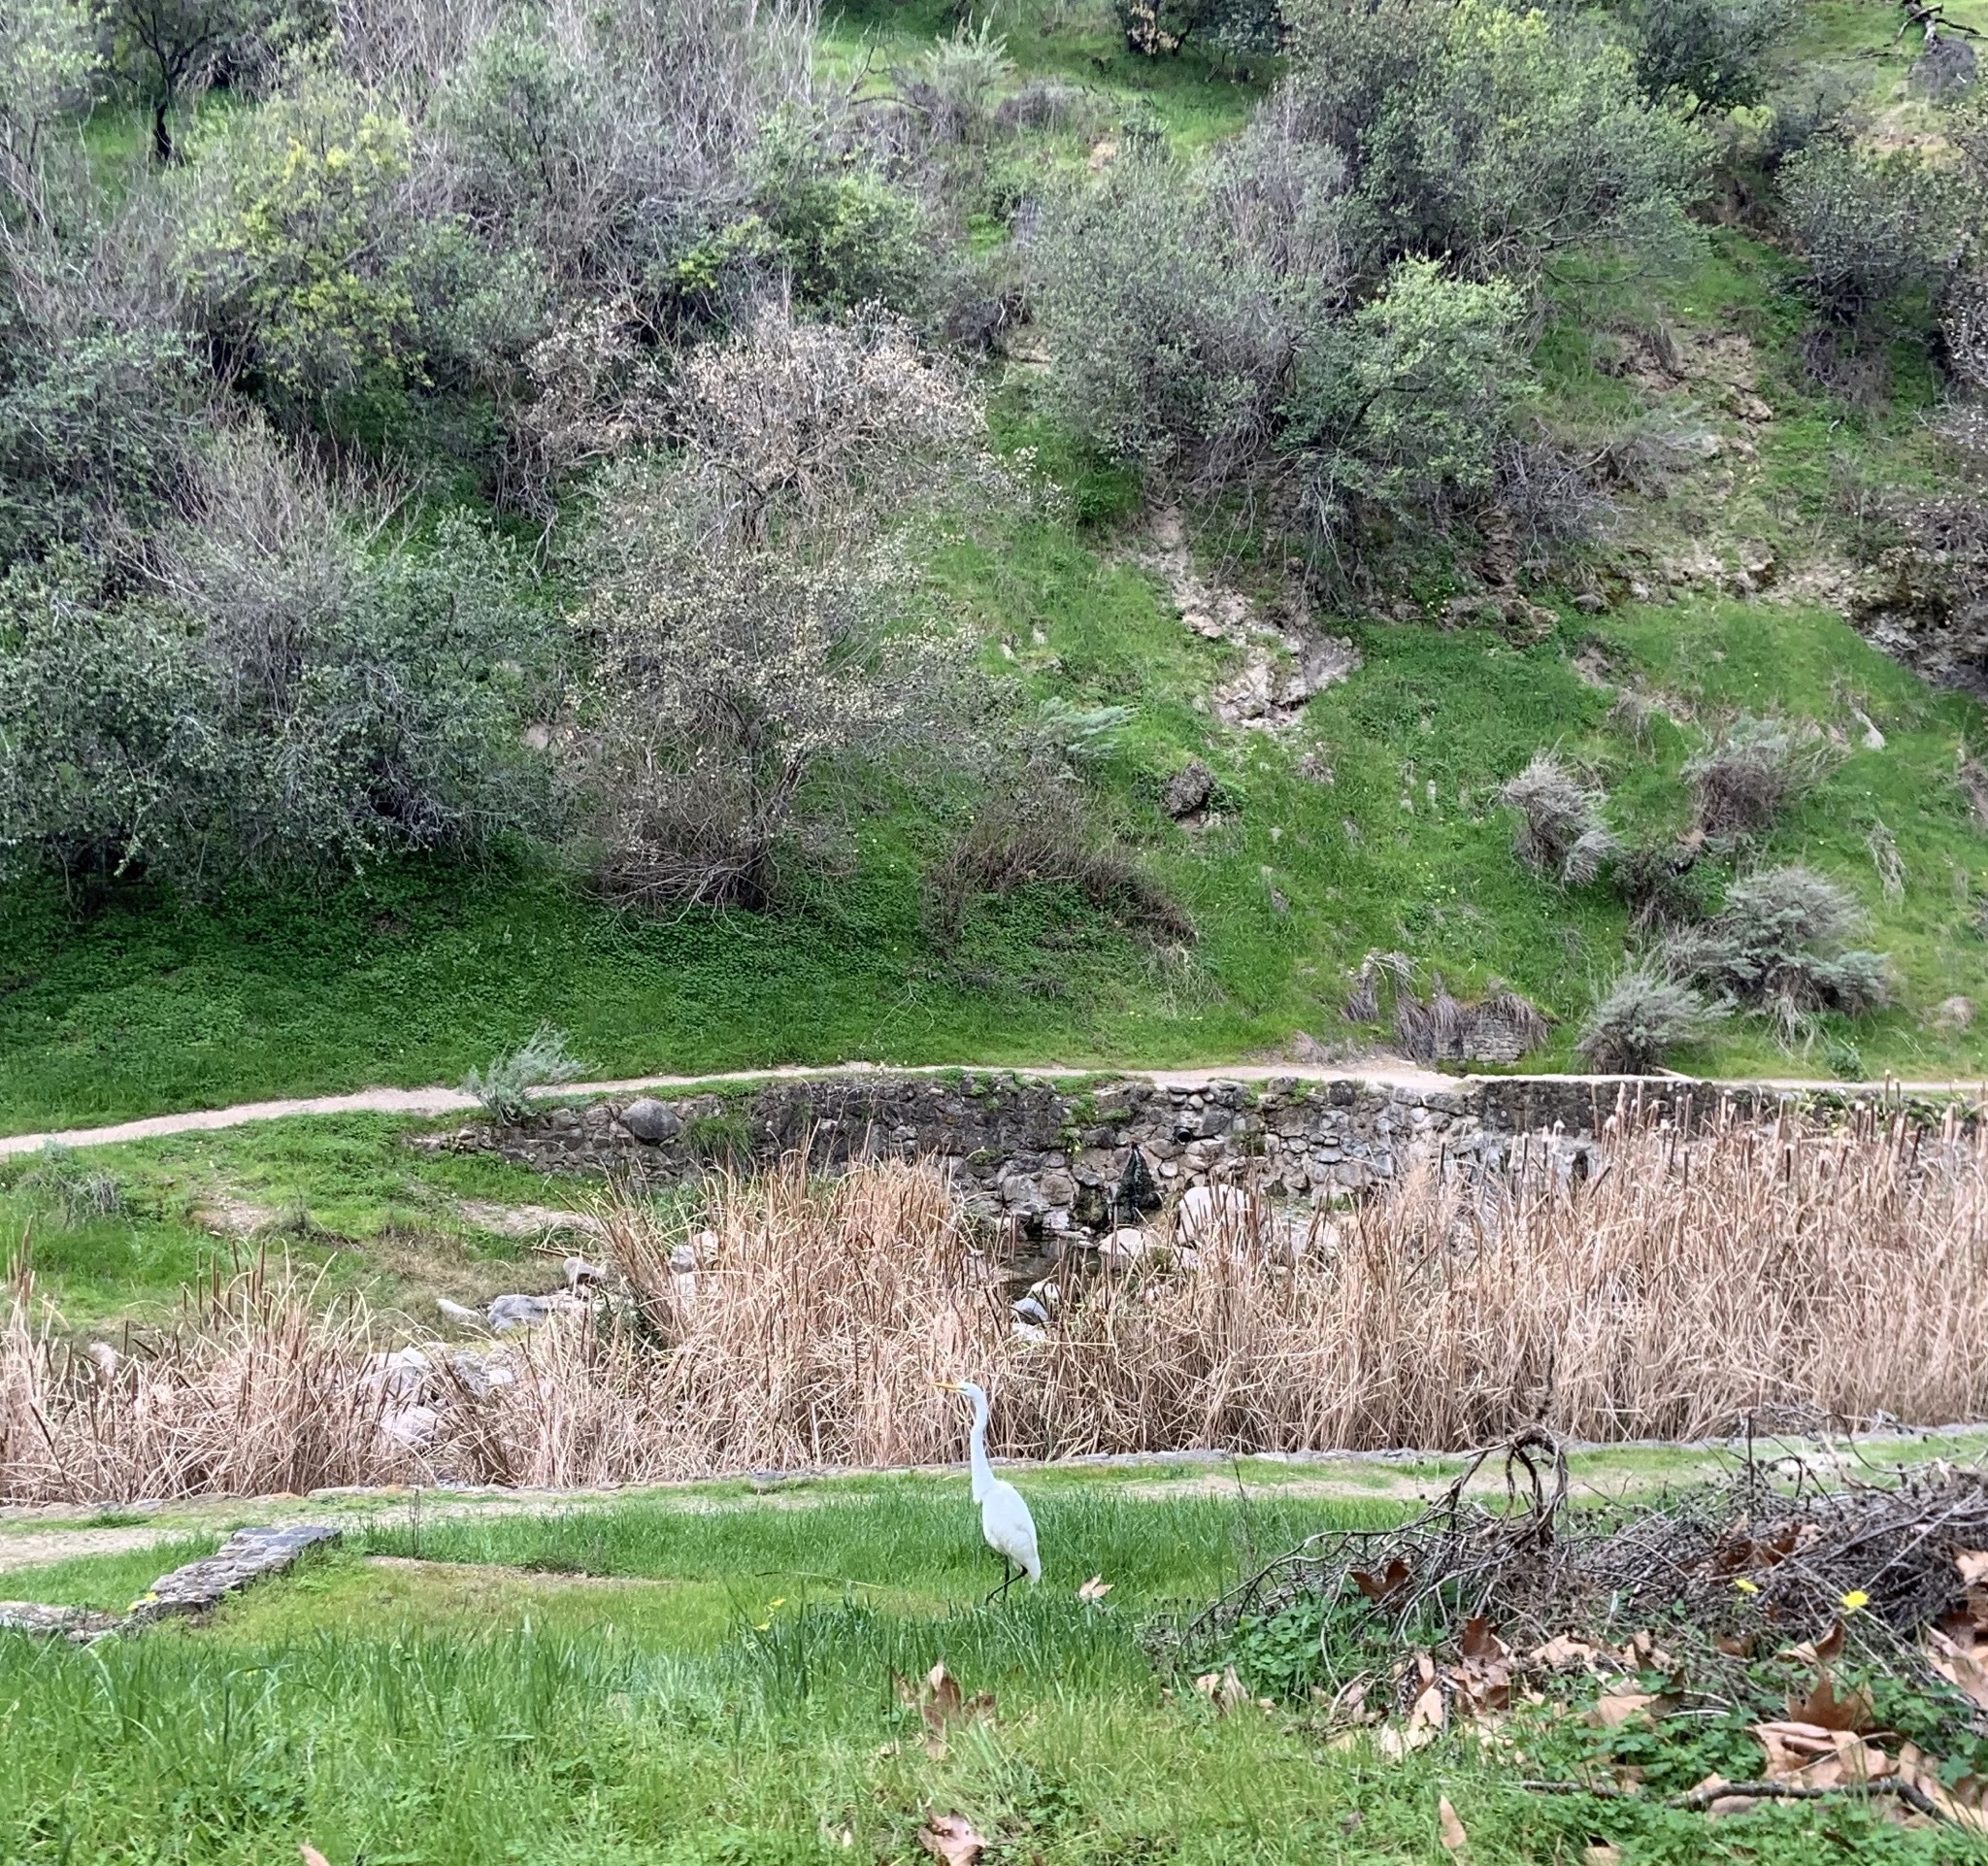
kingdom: Animalia
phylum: Chordata
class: Aves
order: Pelecaniformes
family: Ardeidae
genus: Ardea
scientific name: Ardea alba
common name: Great egret
